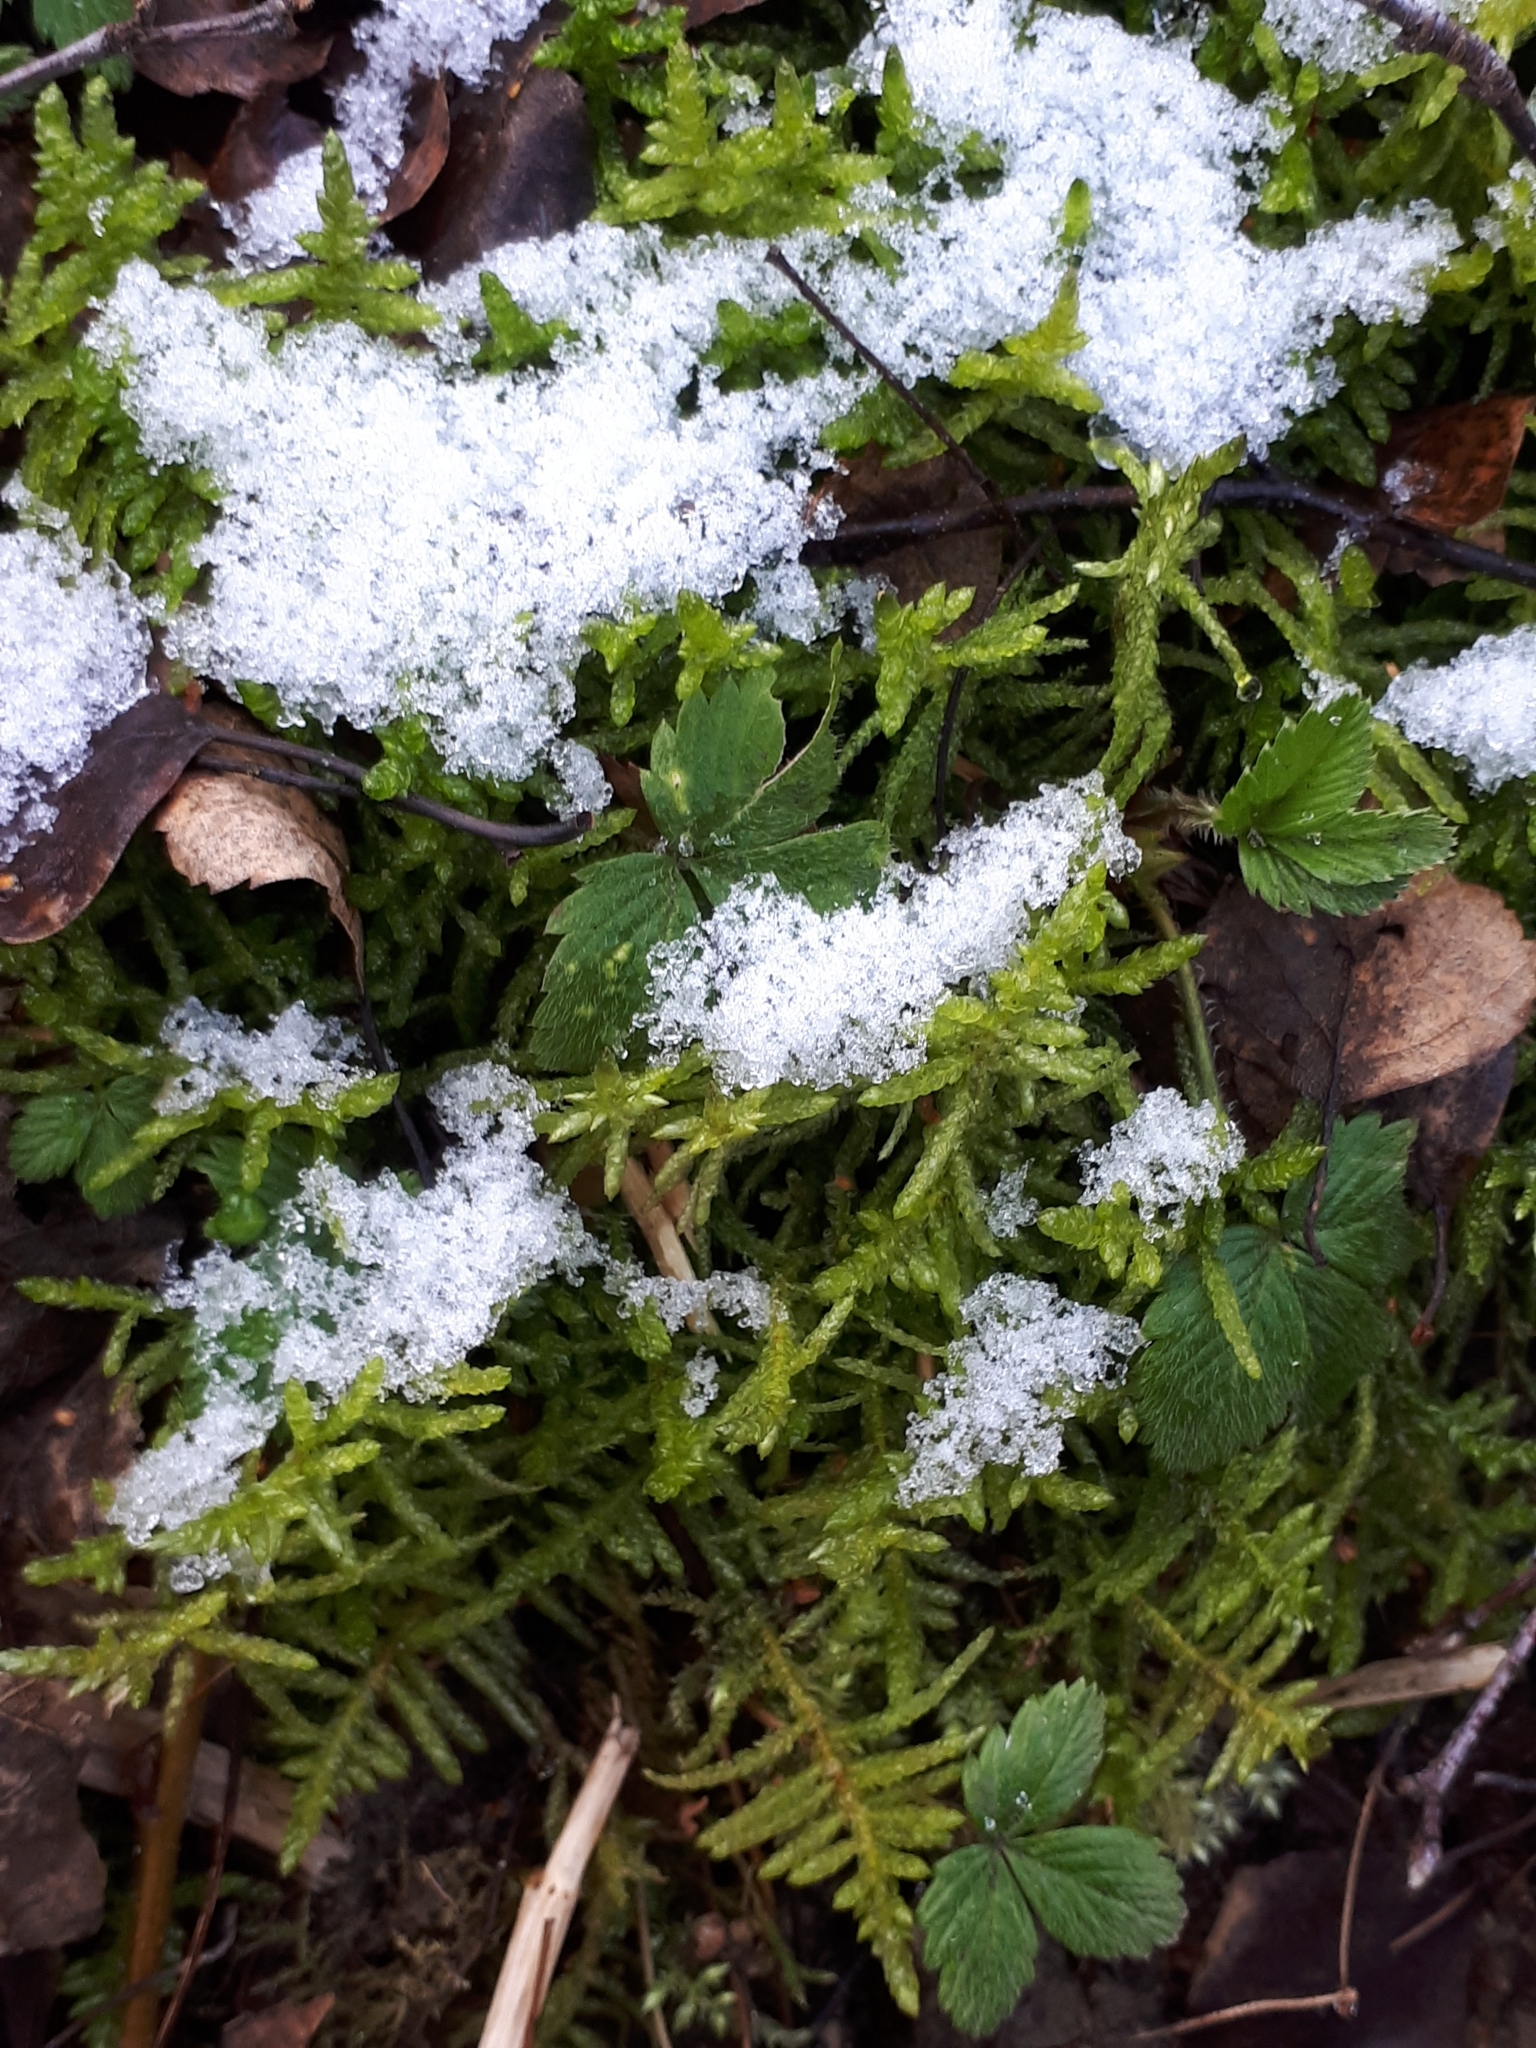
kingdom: Plantae
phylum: Bryophyta
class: Bryopsida
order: Hypnales
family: Brachytheciaceae
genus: Pseudoscleropodium
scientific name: Pseudoscleropodium purum
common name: Neat feather-moss
